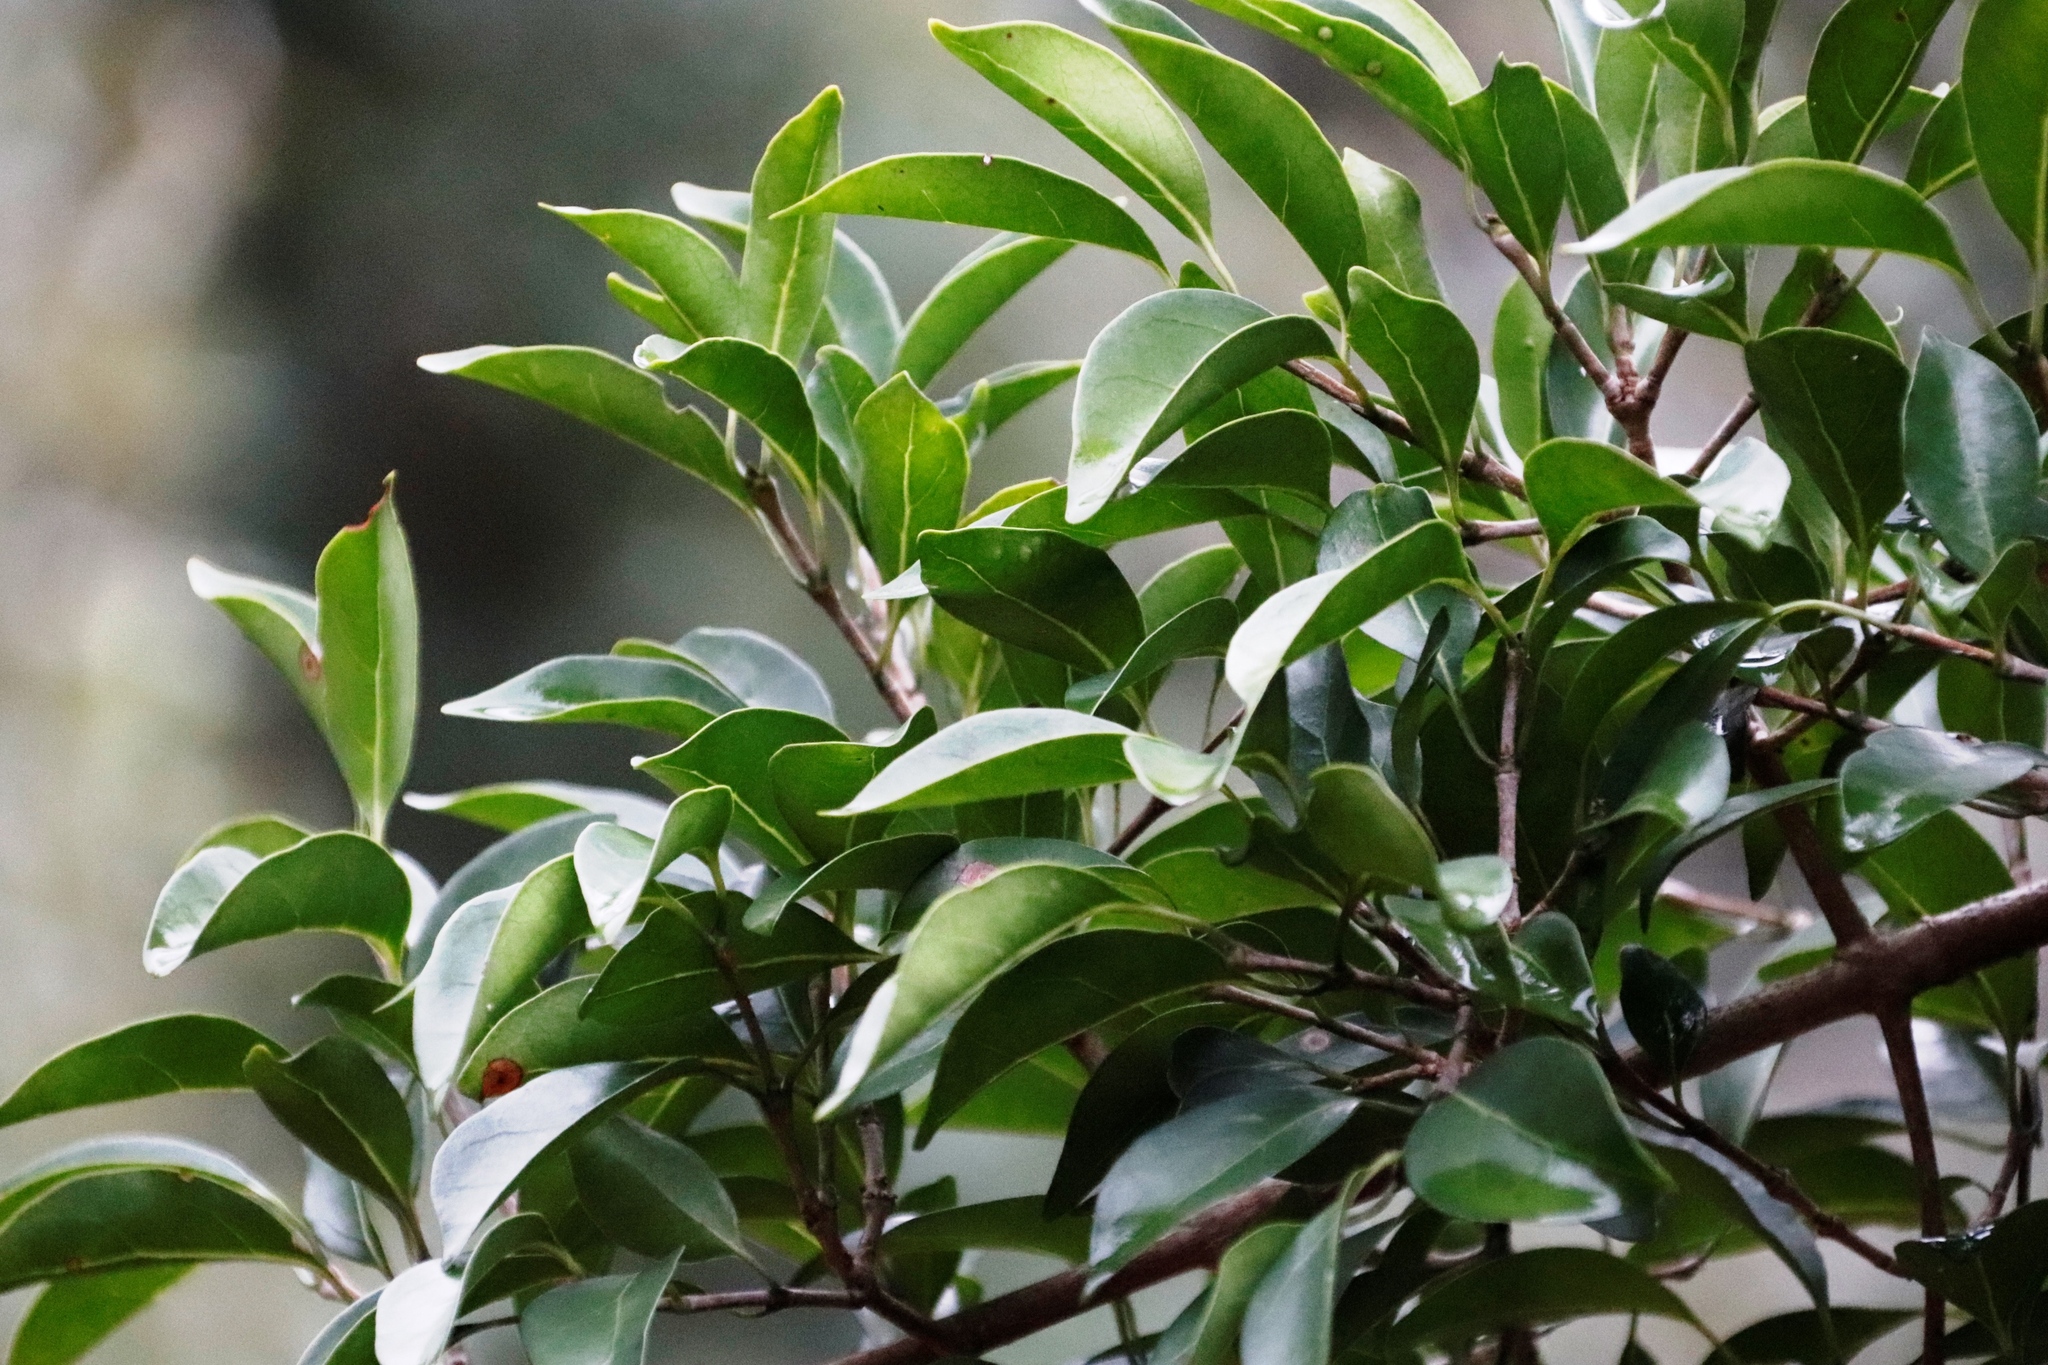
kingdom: Plantae
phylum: Tracheophyta
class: Magnoliopsida
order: Aquifoliales
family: Aquifoliaceae
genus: Ilex
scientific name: Ilex mitis
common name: African holly
